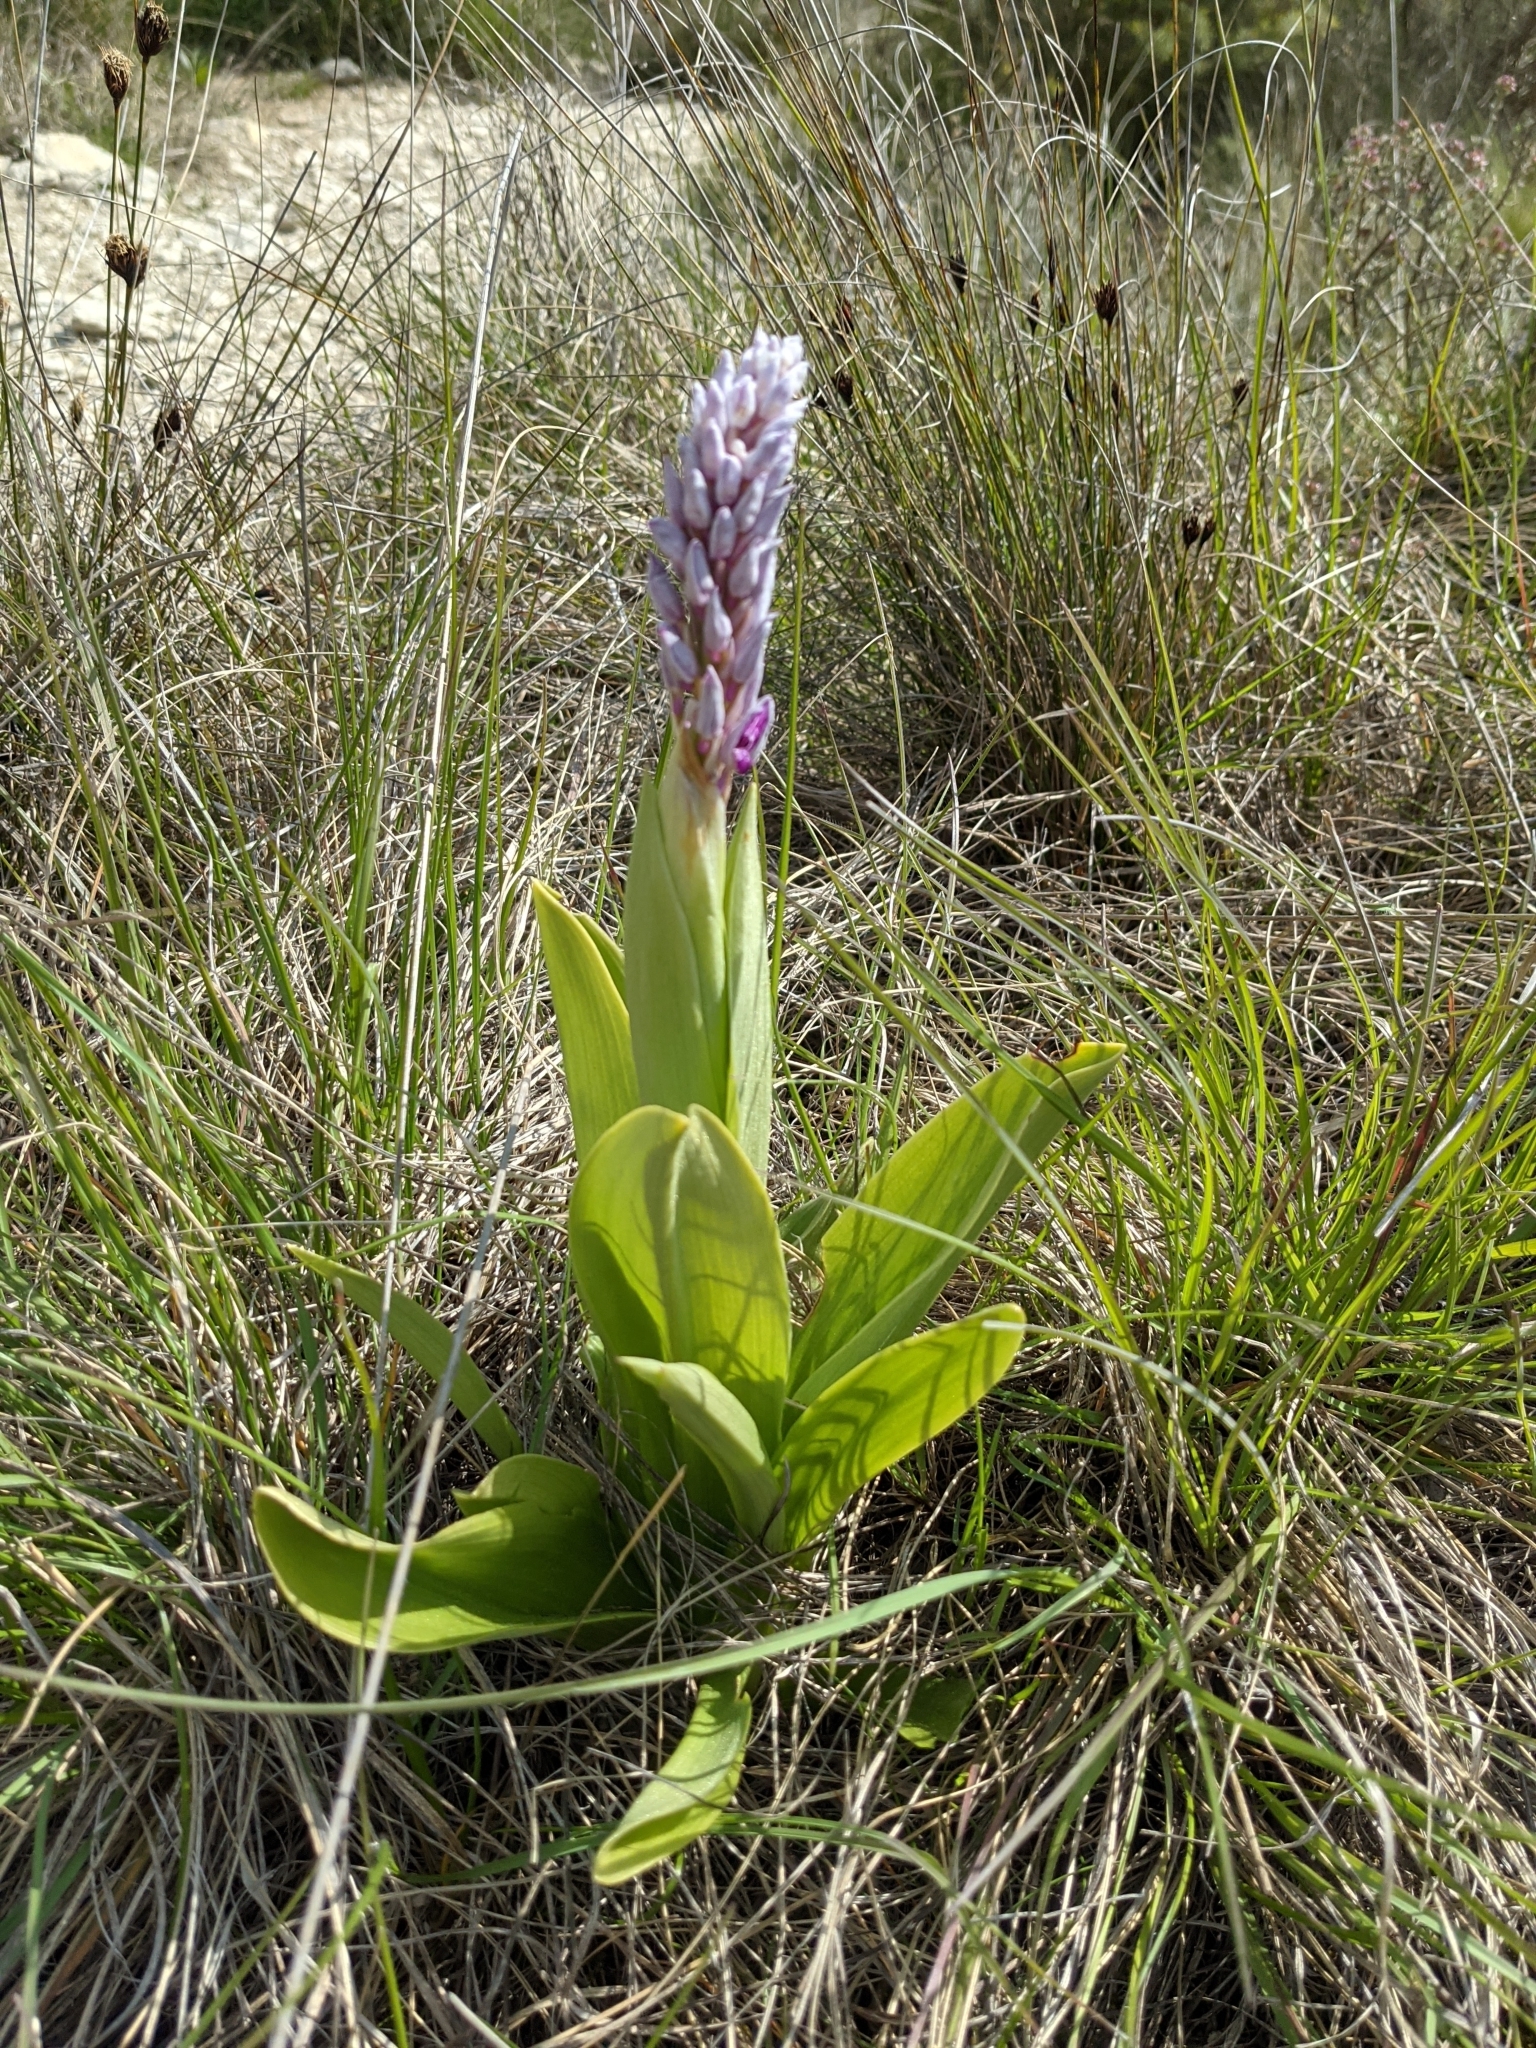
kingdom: Plantae
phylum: Tracheophyta
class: Liliopsida
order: Asparagales
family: Orchidaceae
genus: Orchis
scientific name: Orchis militaris
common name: Military orchid
